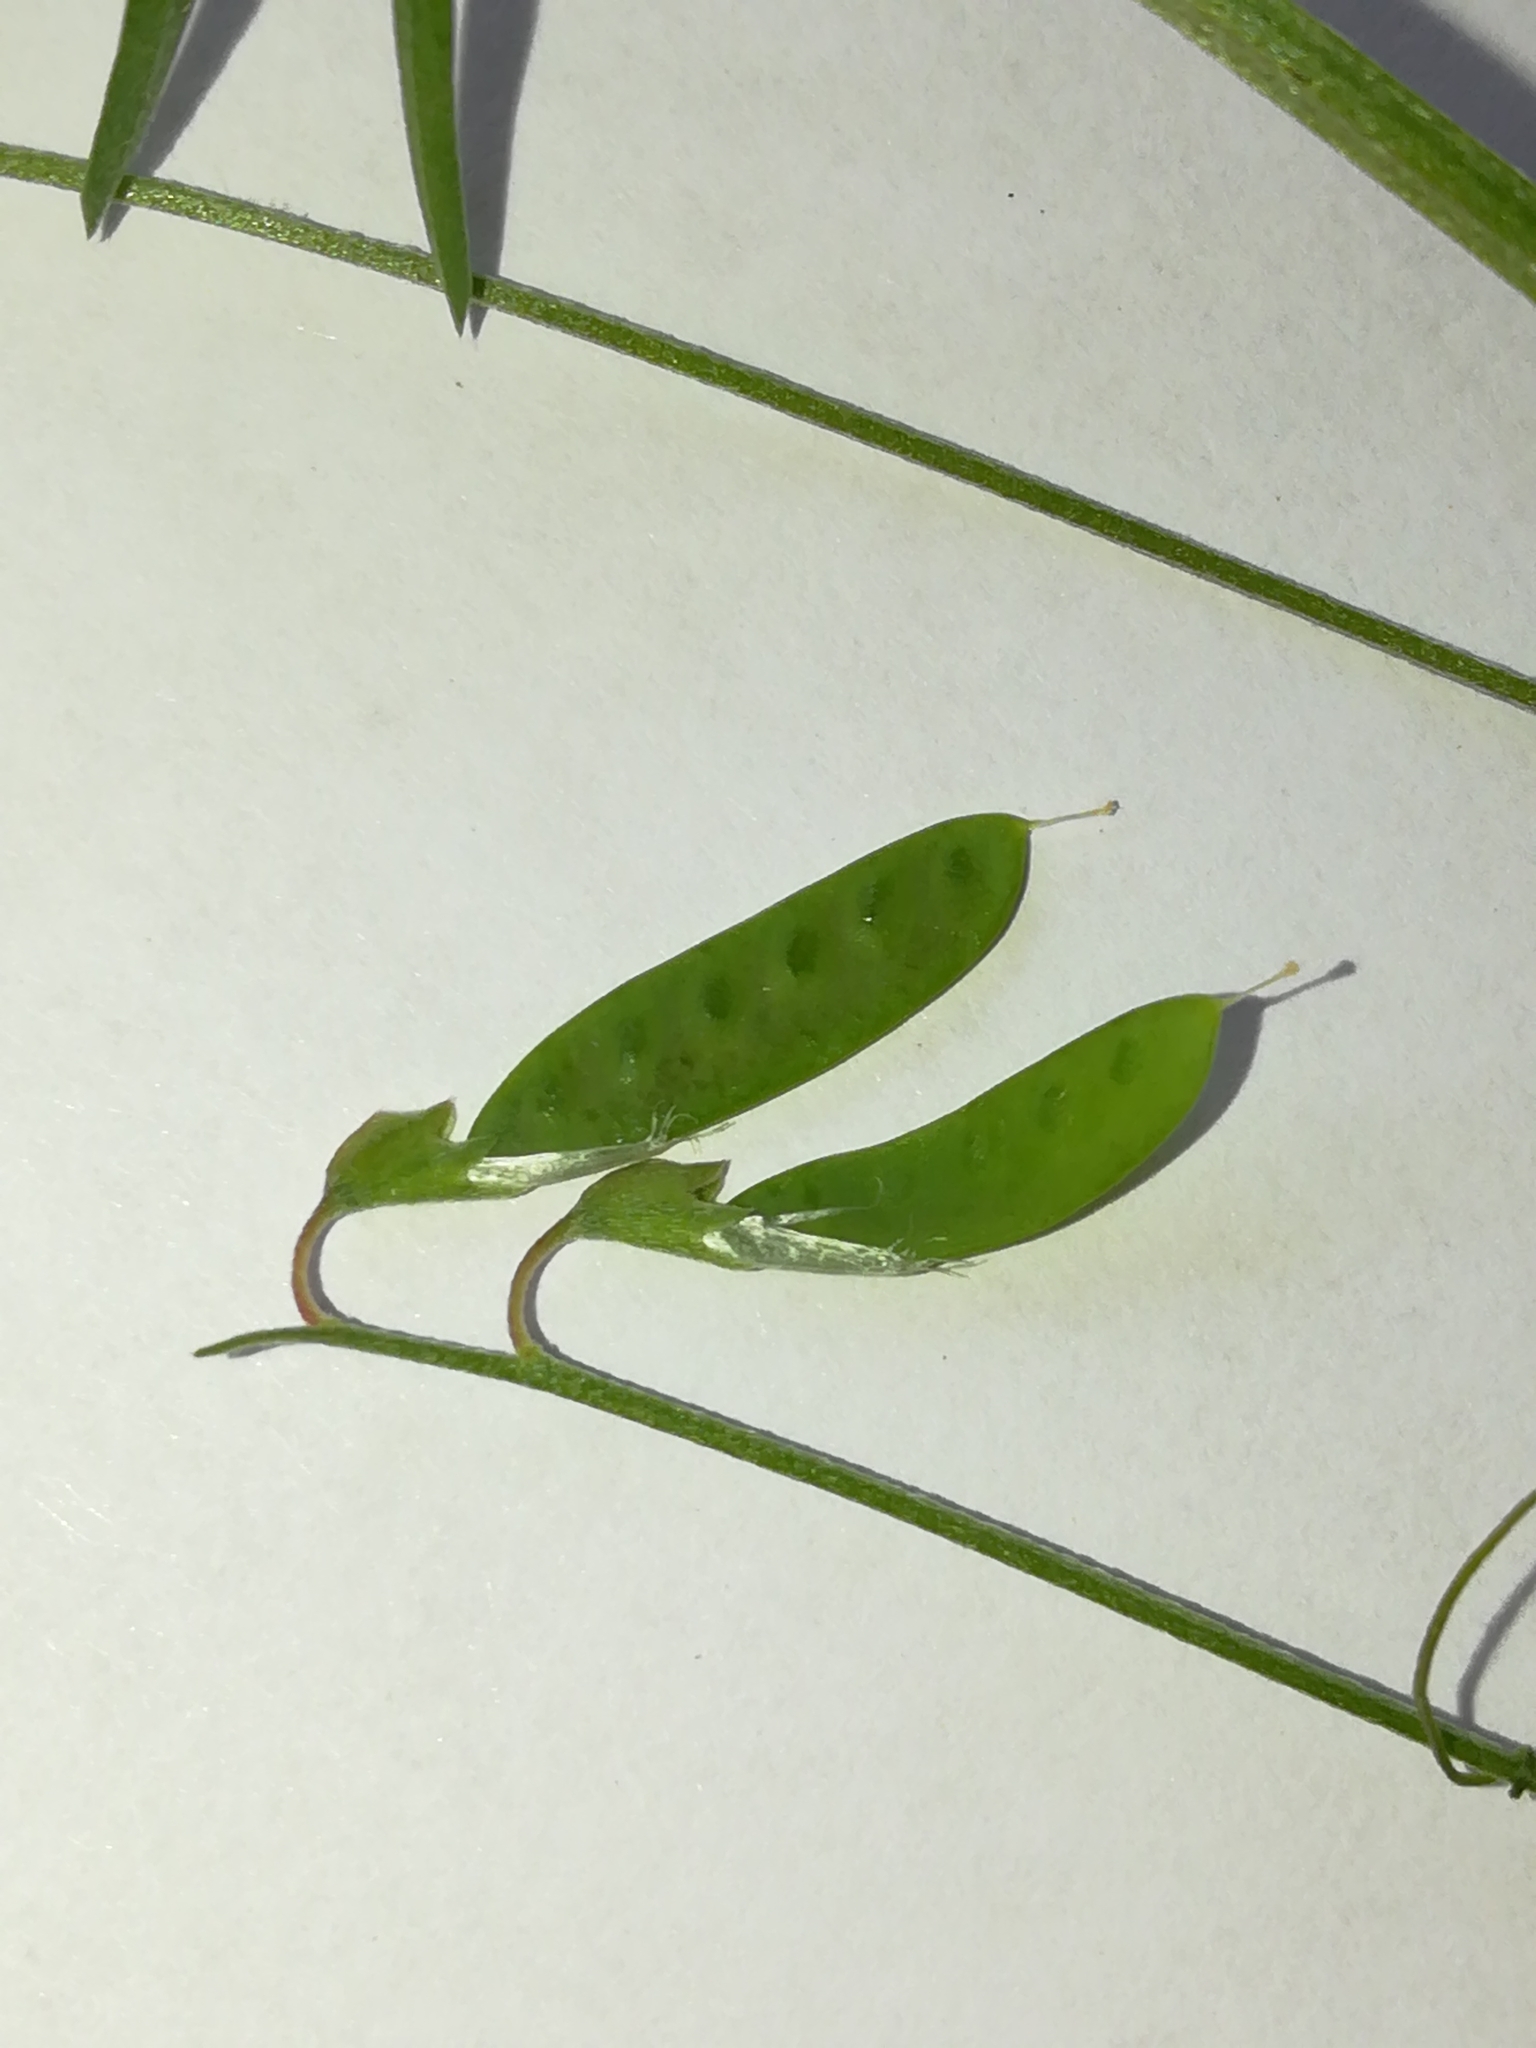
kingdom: Plantae
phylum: Tracheophyta
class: Magnoliopsida
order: Fabales
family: Fabaceae
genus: Vicia
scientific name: Vicia parviflora
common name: Slender tare
